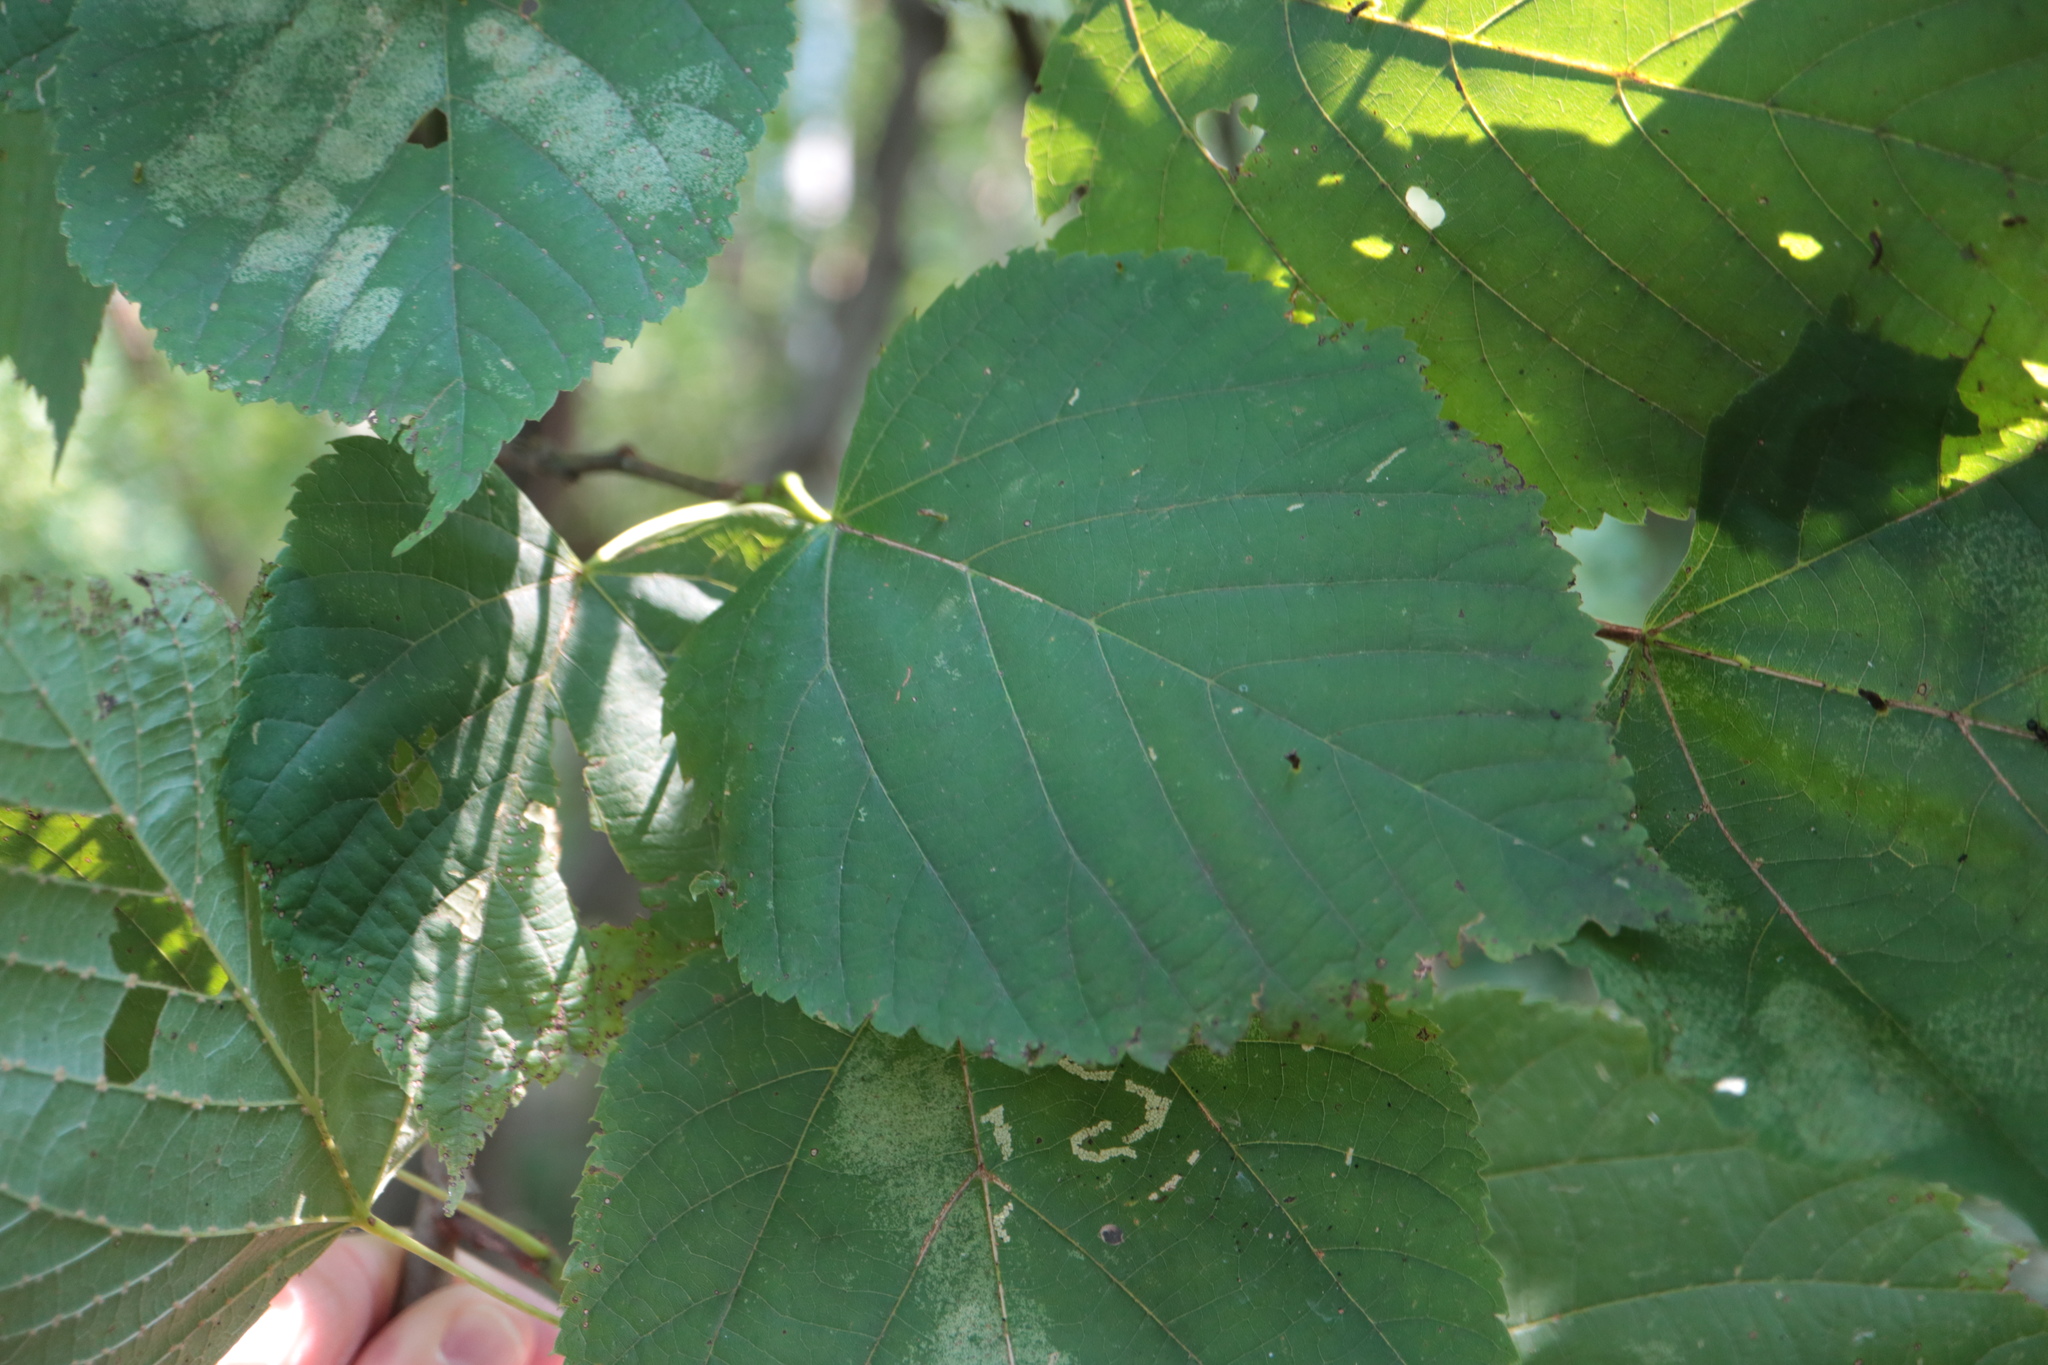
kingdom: Animalia
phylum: Arthropoda
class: Arachnida
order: Trombidiformes
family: Eriophyidae
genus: Eriophyes
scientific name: Eriophyes tiliae
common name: Red nail gall mite
